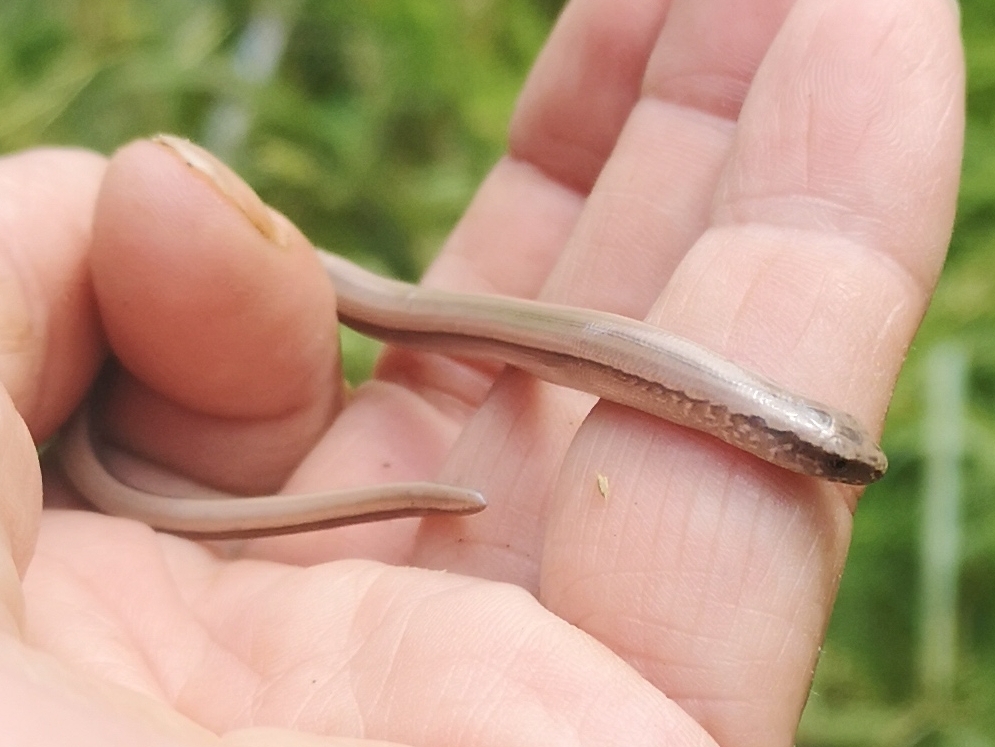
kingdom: Animalia
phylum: Chordata
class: Squamata
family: Anguidae
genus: Anguis
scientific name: Anguis
